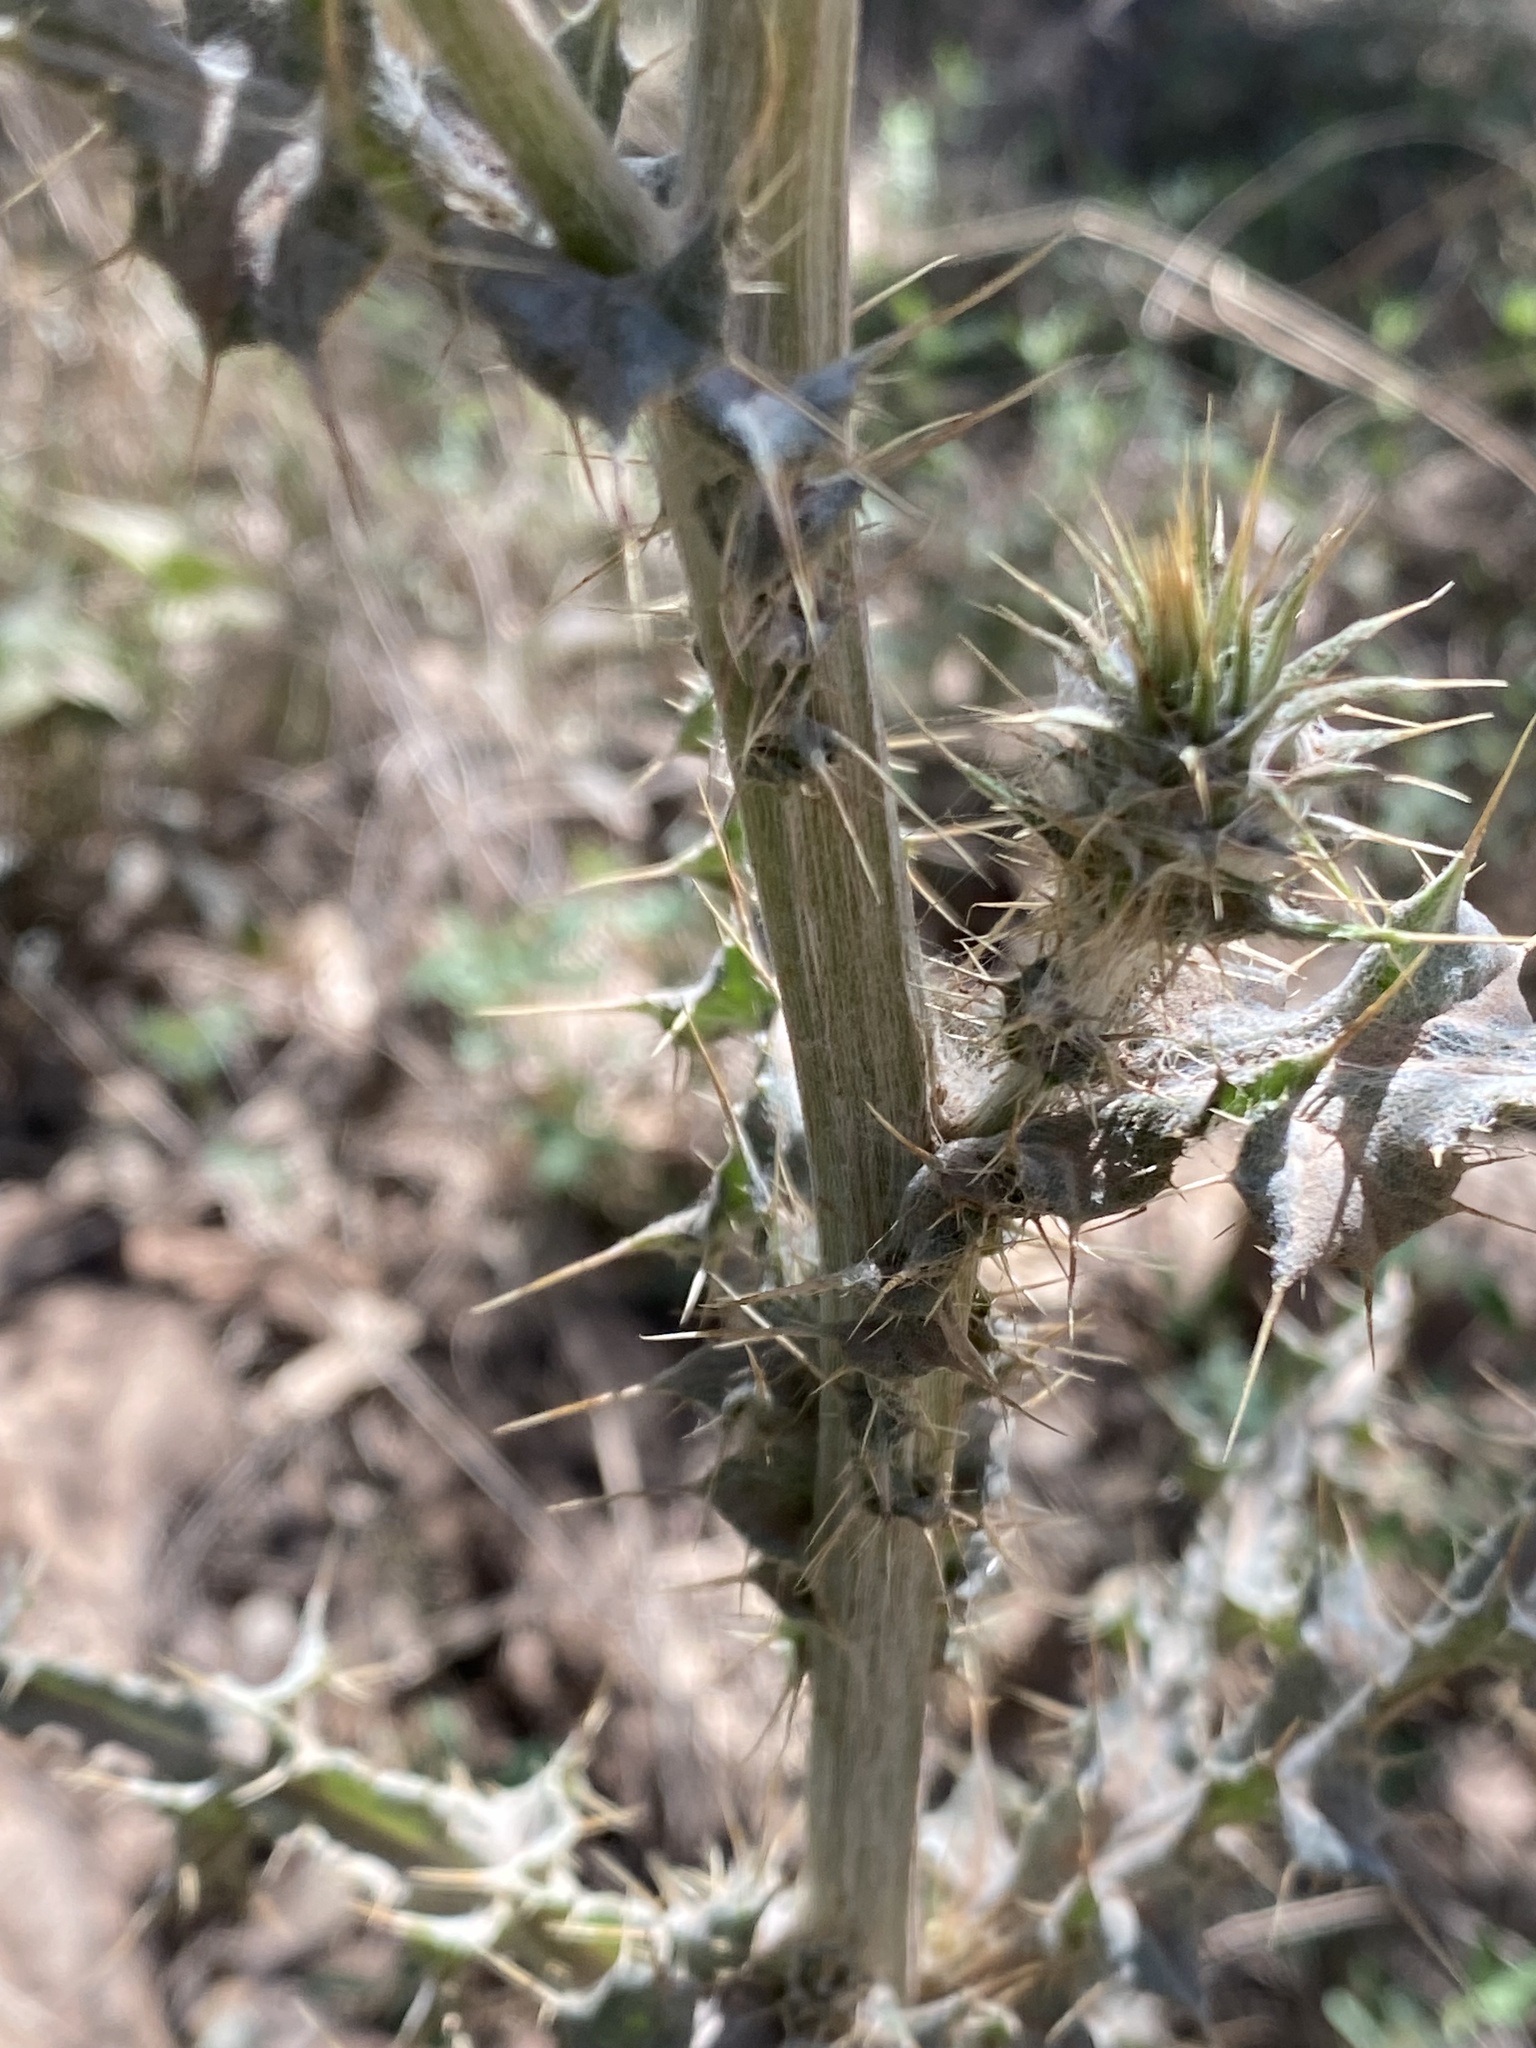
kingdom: Plantae
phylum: Tracheophyta
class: Magnoliopsida
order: Asterales
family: Asteraceae
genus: Cirsium
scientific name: Cirsium neomexicanum
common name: New mexico thistle
